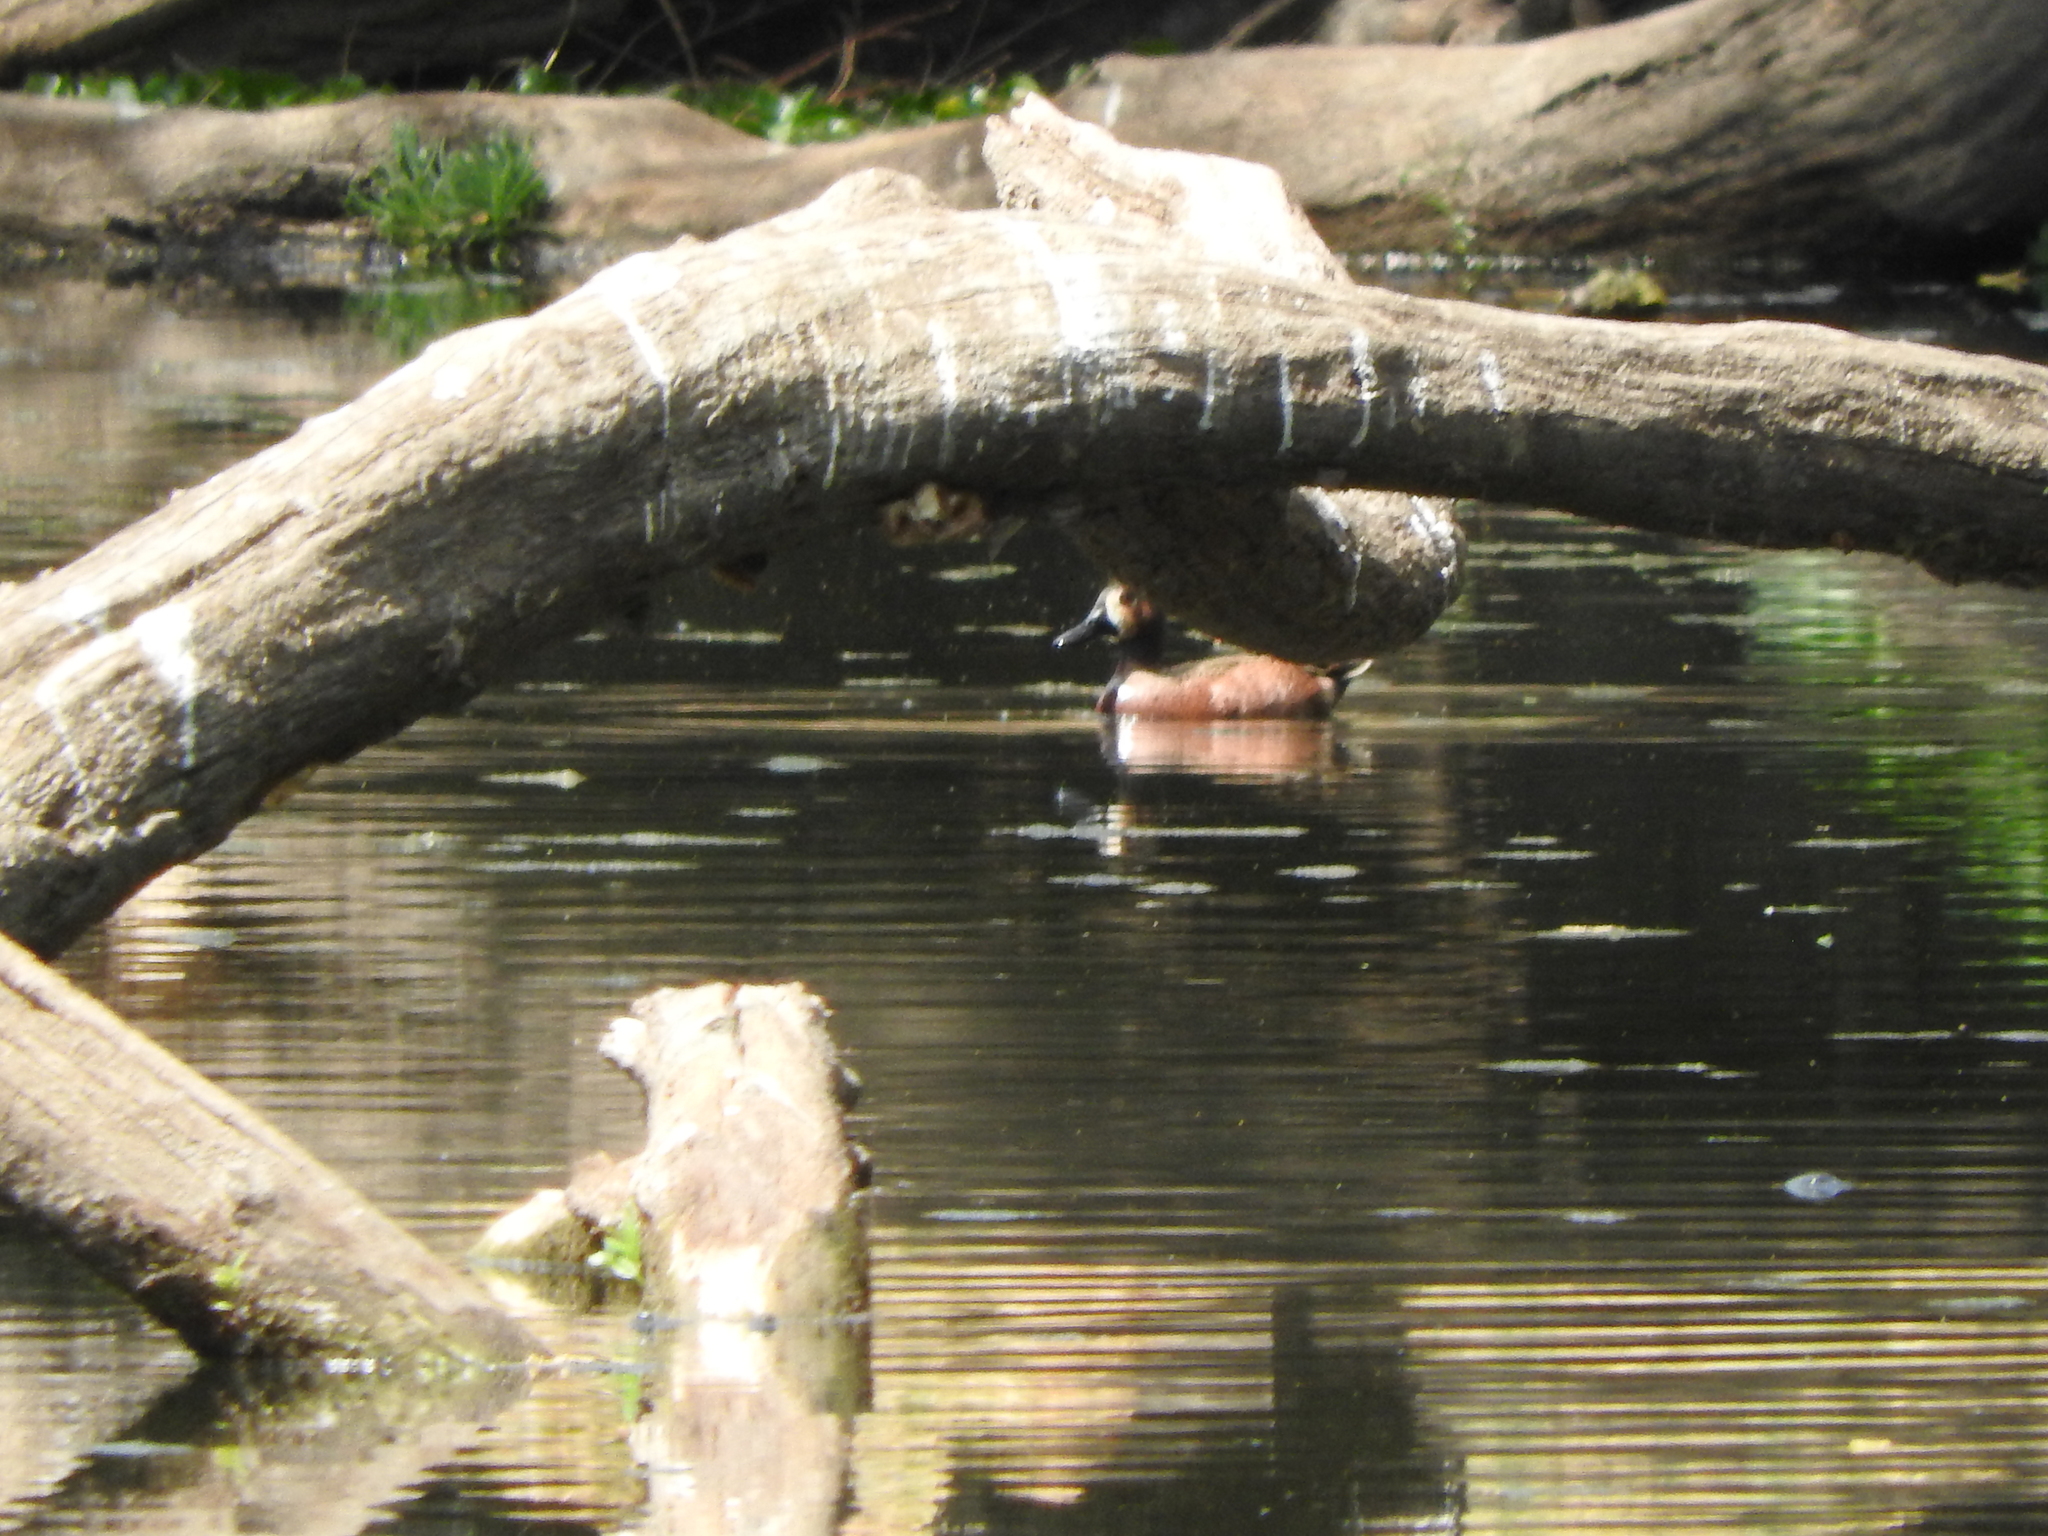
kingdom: Animalia
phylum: Chordata
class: Aves
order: Anseriformes
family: Anatidae
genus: Spatula
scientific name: Spatula cyanoptera
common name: Cinnamon teal
